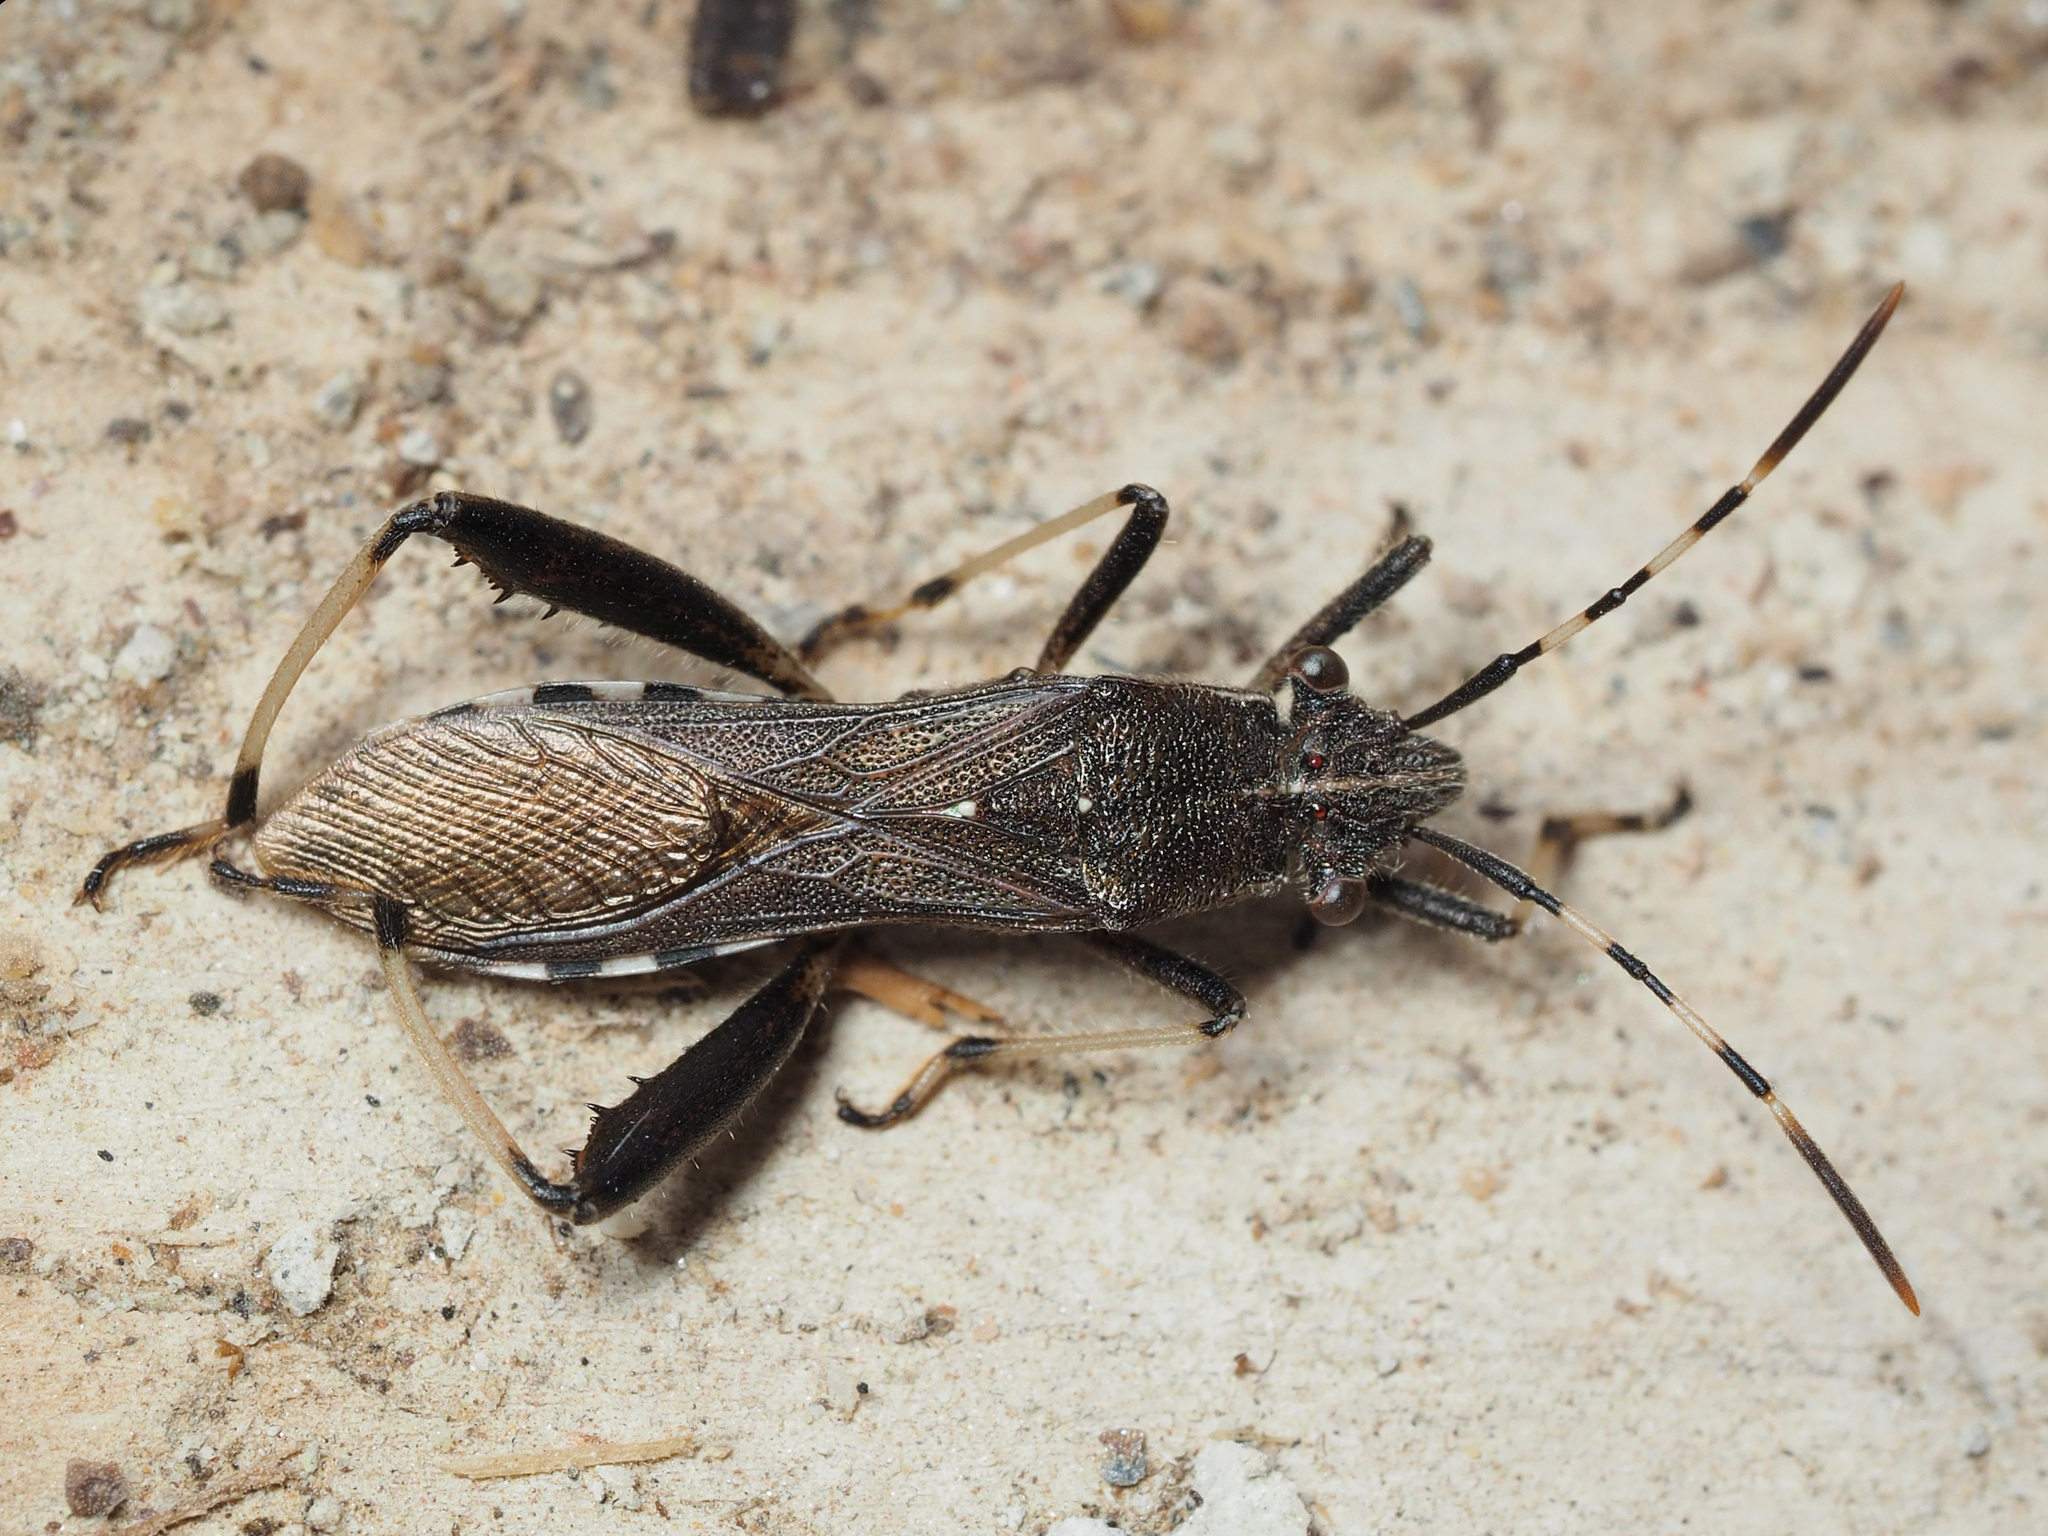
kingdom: Animalia
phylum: Arthropoda
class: Insecta
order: Hemiptera
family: Alydidae
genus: Camptopus
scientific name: Camptopus lateralis
